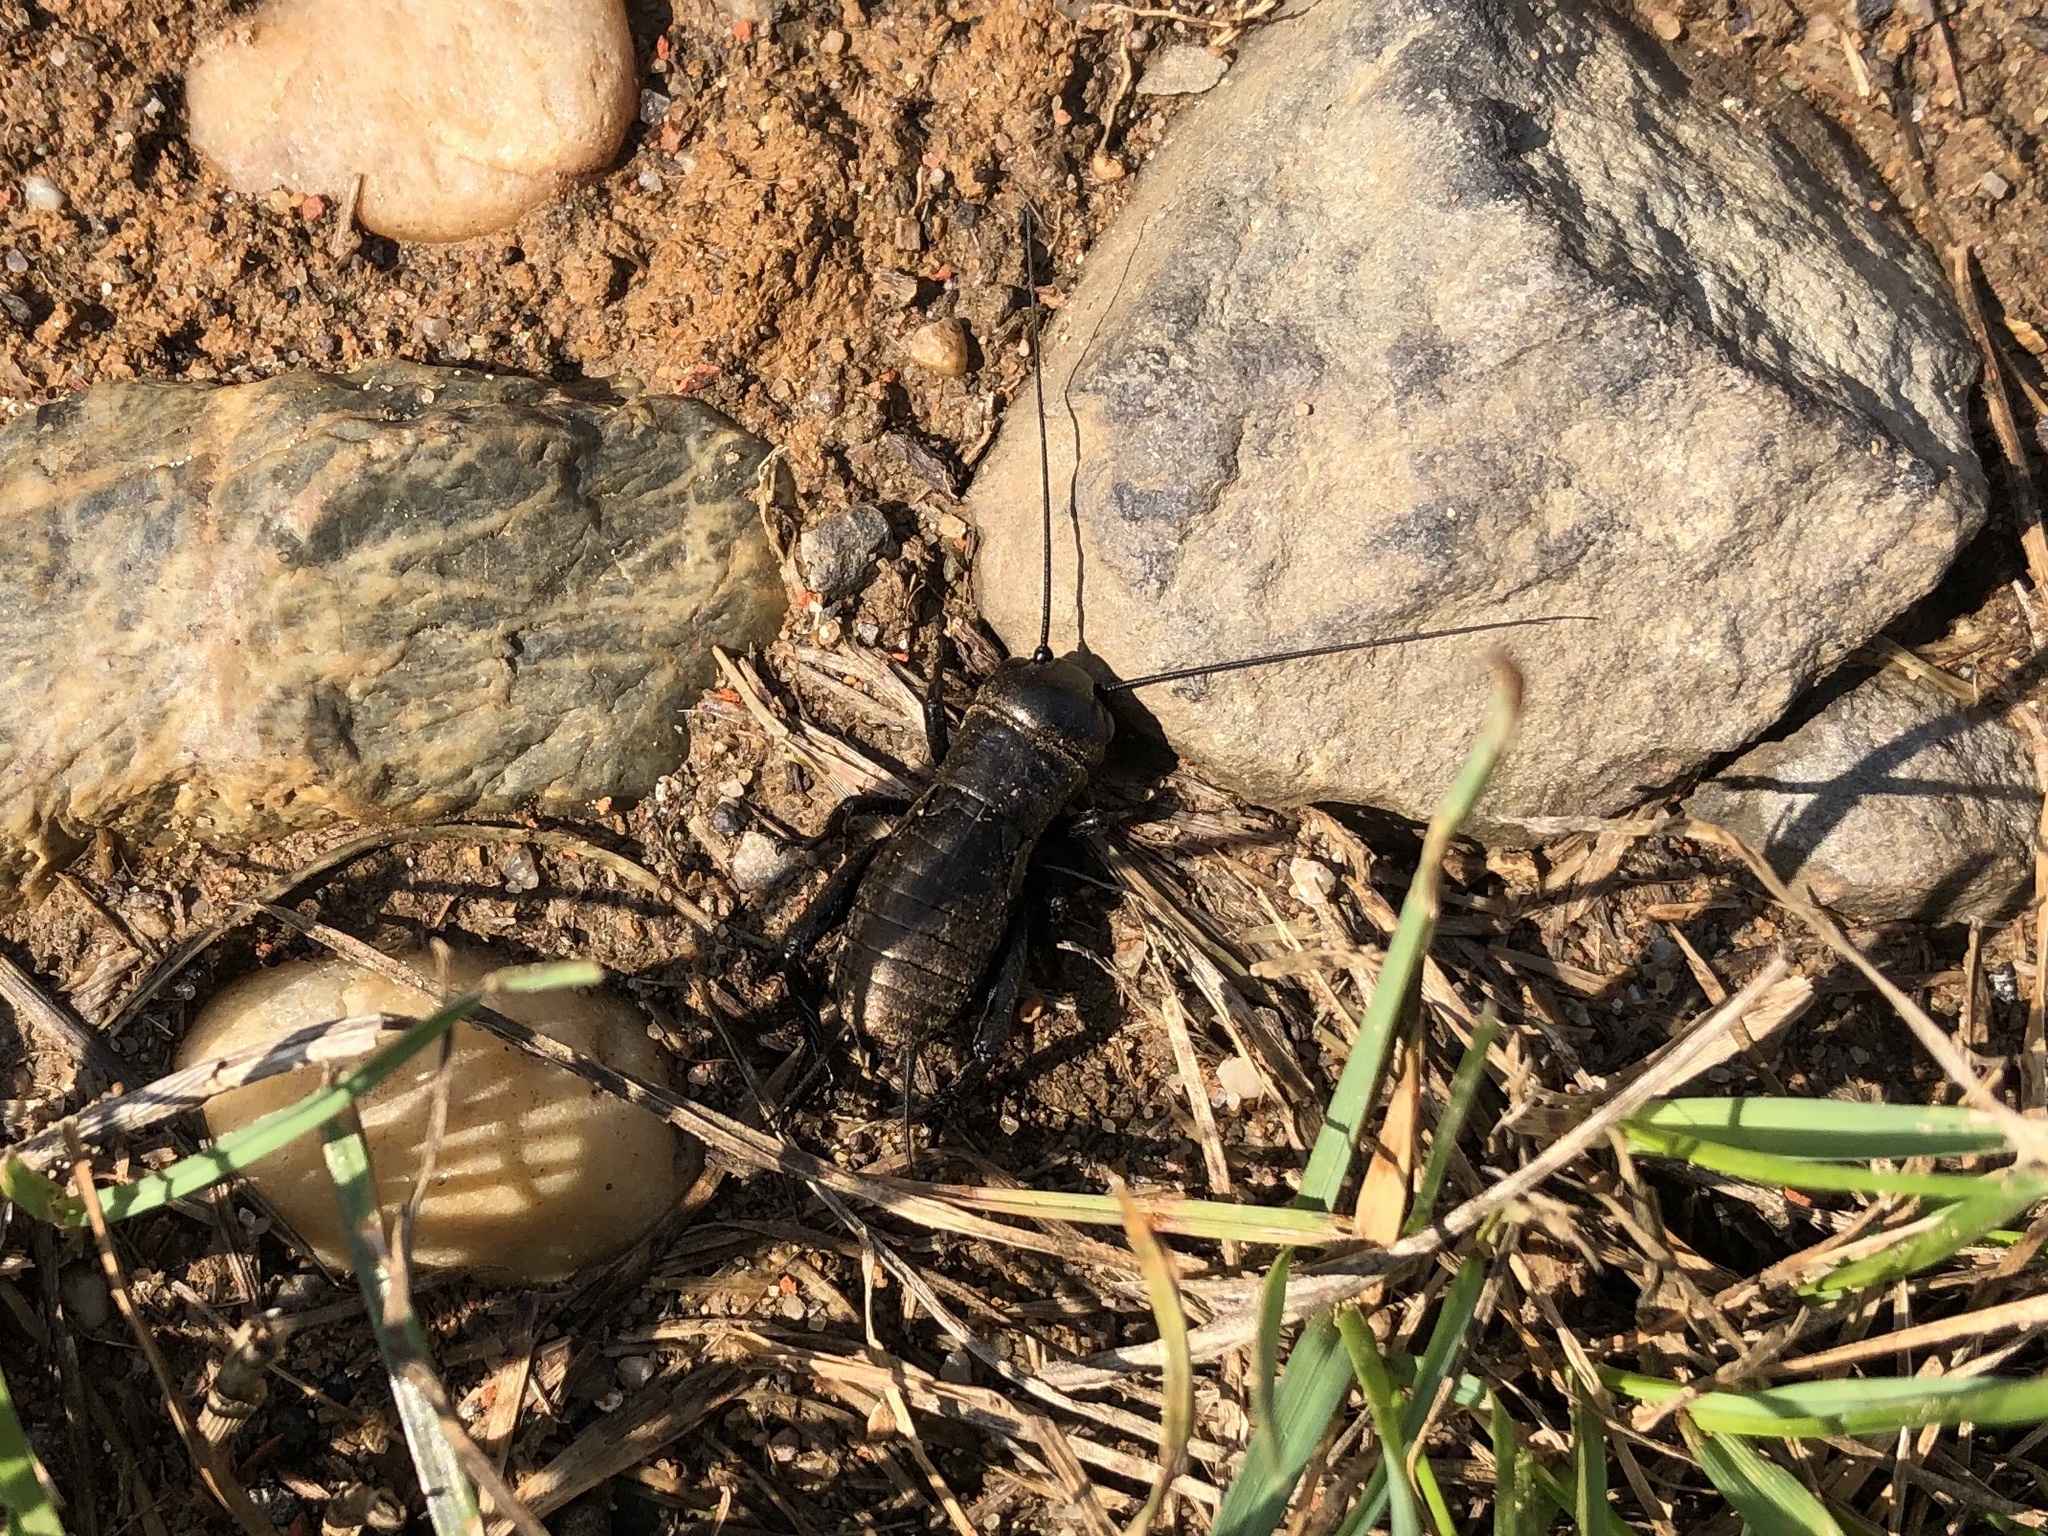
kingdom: Animalia
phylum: Arthropoda
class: Insecta
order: Orthoptera
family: Gryllidae
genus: Gryllus
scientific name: Gryllus campestris
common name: Field cricket
